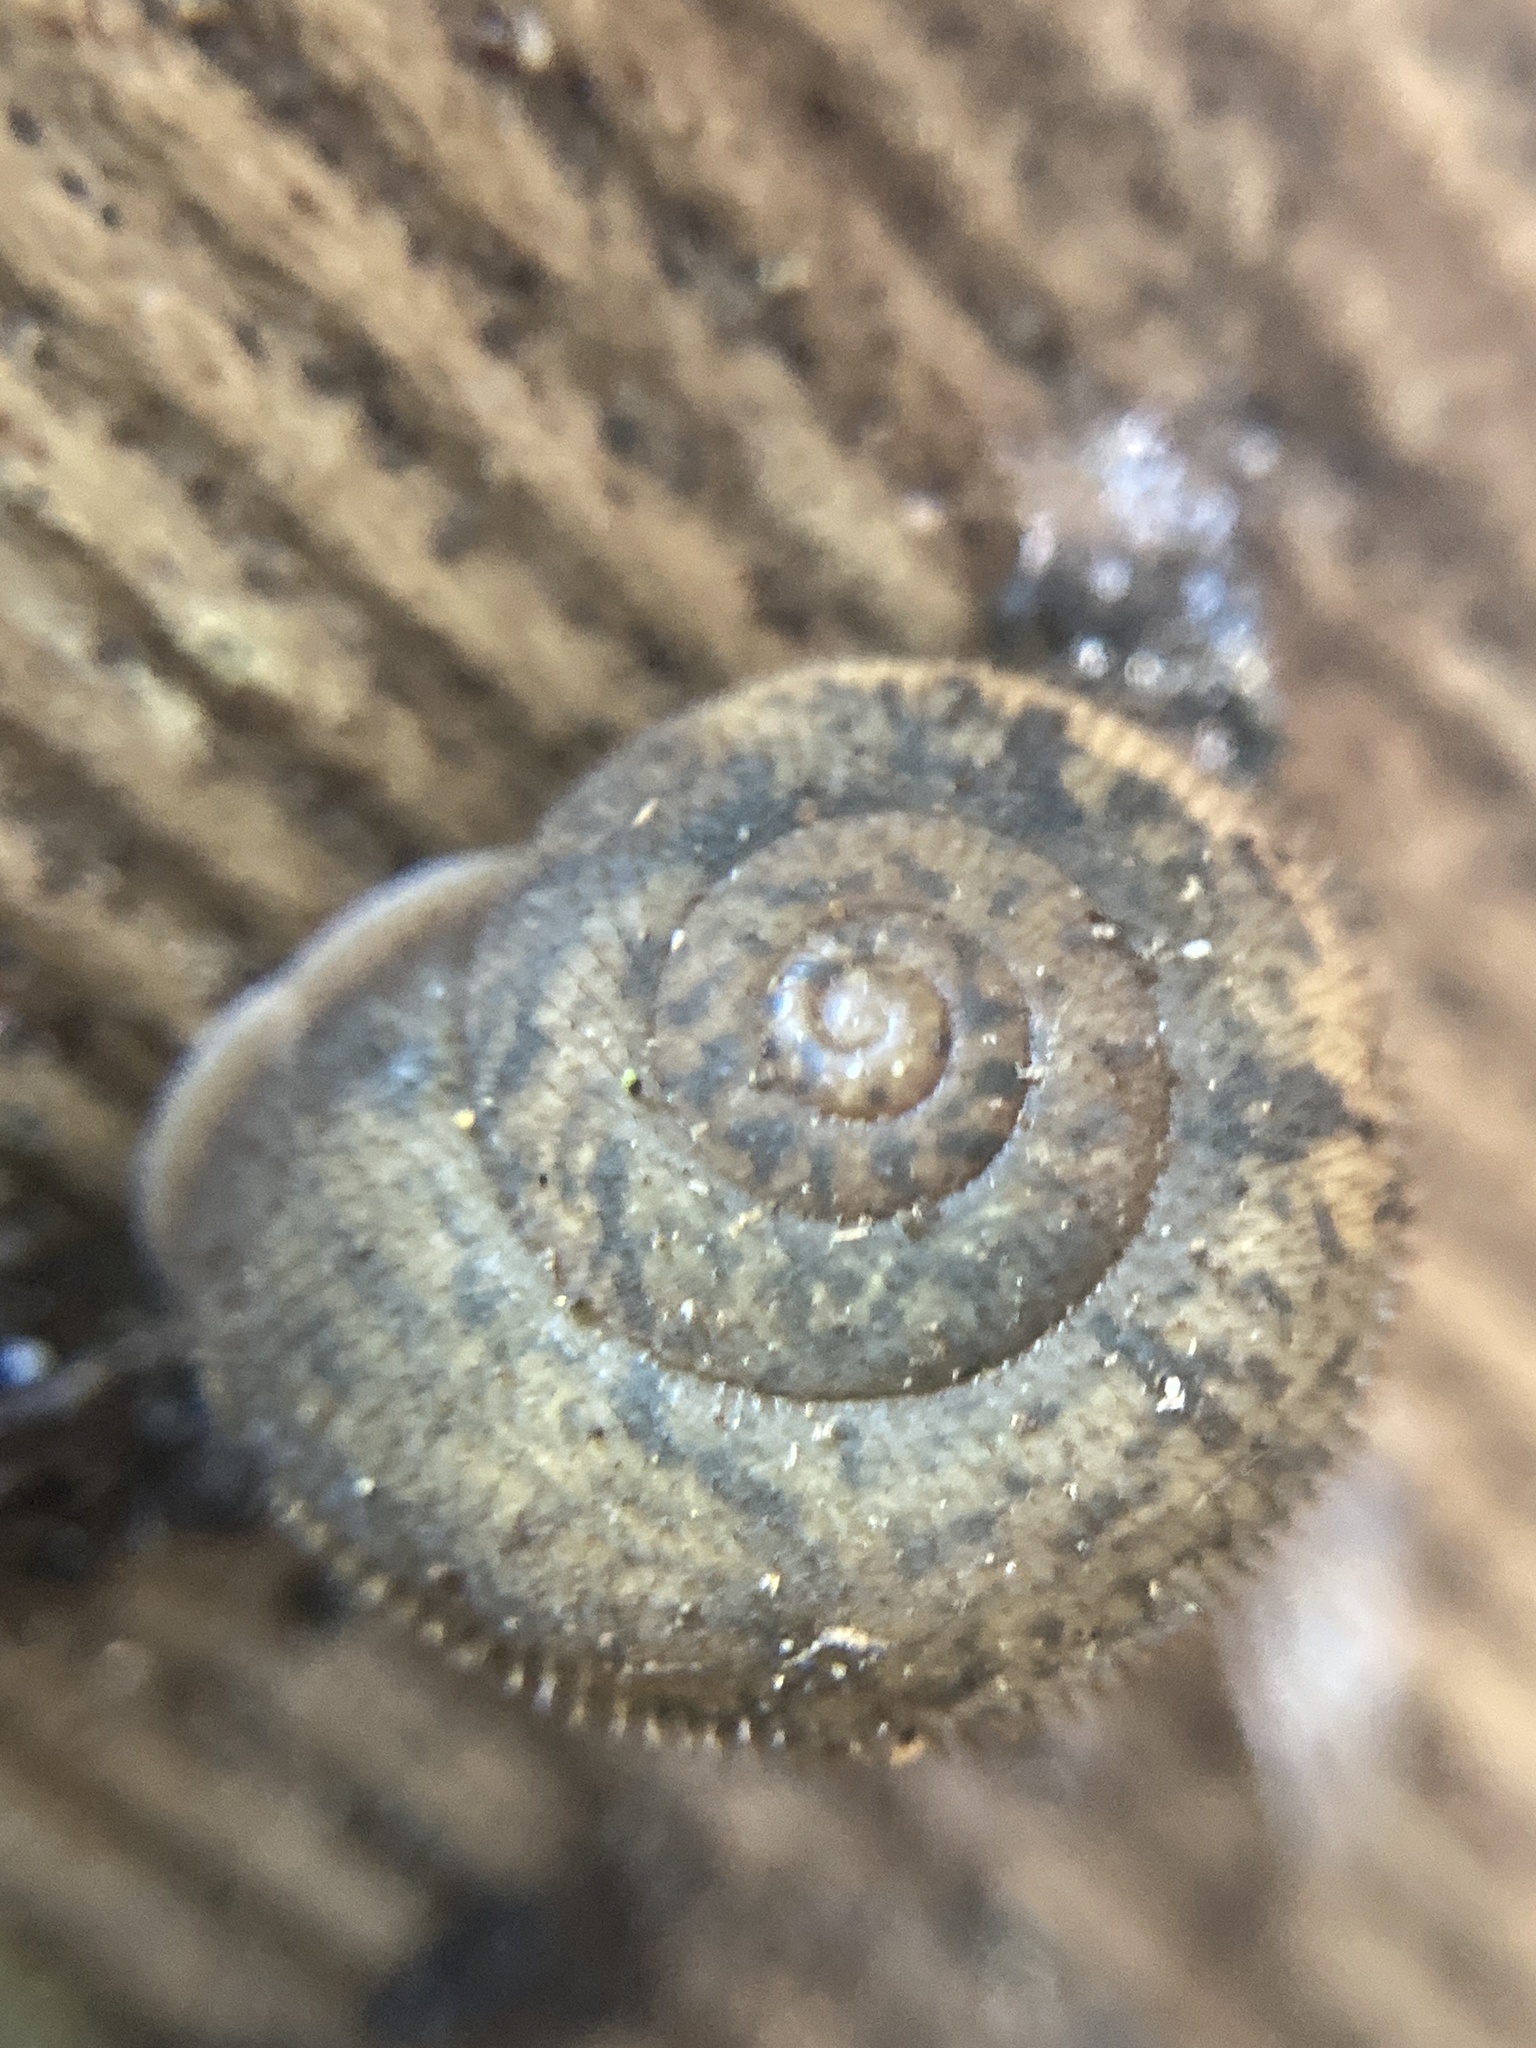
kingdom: Animalia
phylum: Mollusca
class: Gastropoda
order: Stylommatophora
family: Camaenidae
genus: Austrochloritis
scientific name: Austrochloritis metuenda
